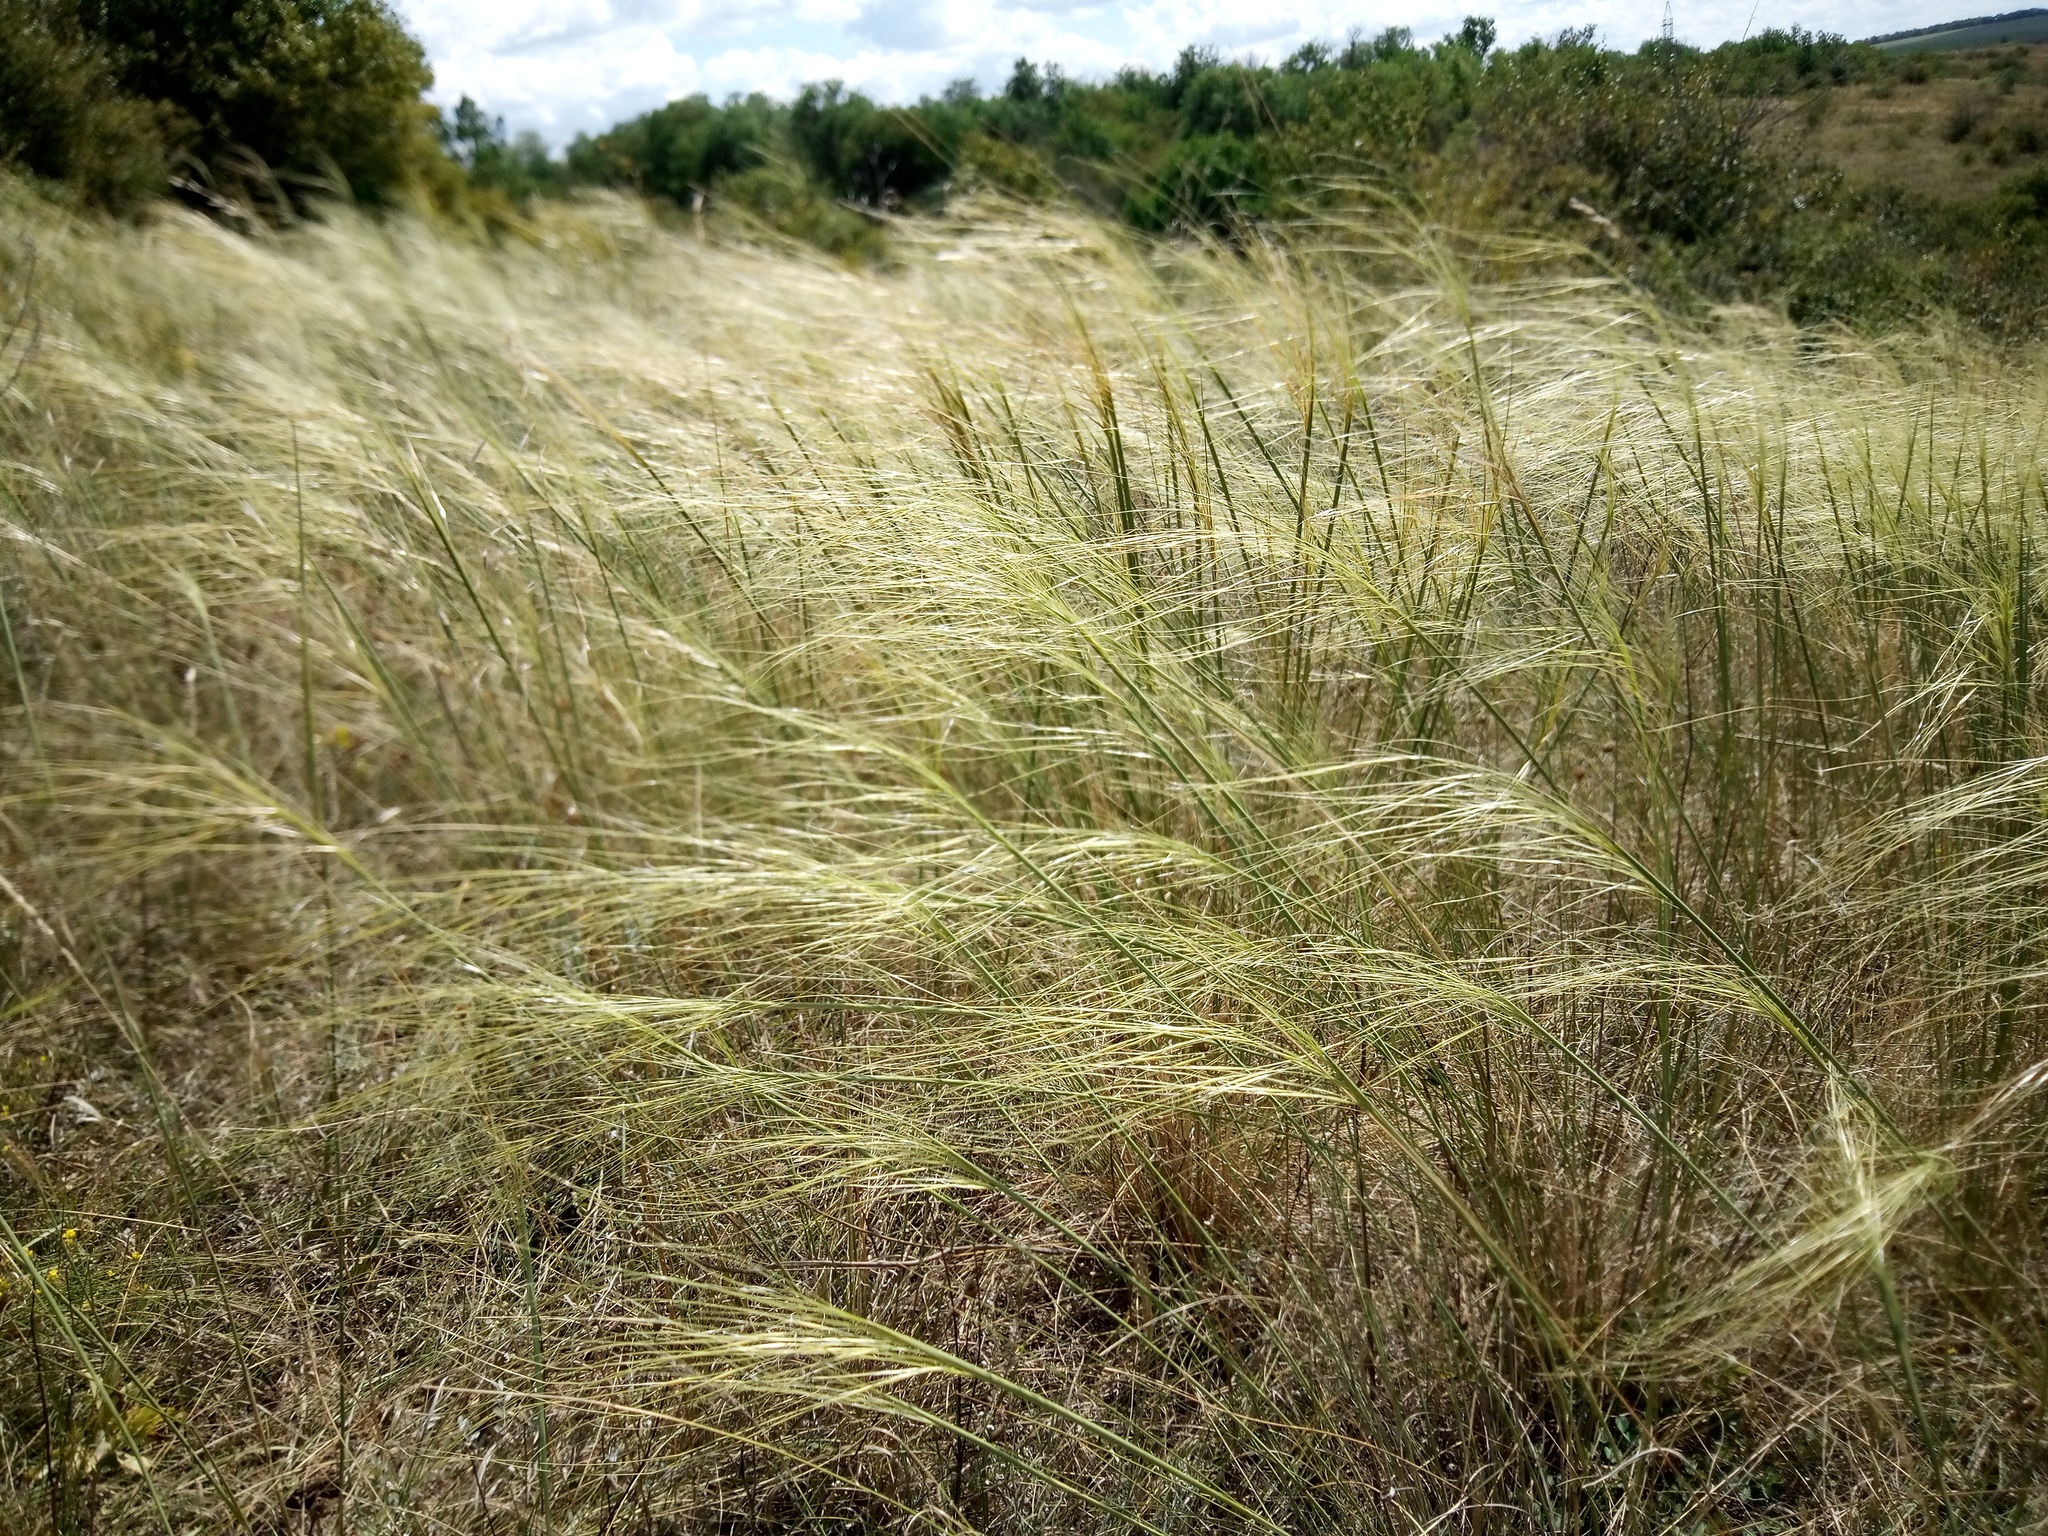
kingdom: Plantae
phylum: Tracheophyta
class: Liliopsida
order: Poales
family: Poaceae
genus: Stipa
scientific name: Stipa capillata
